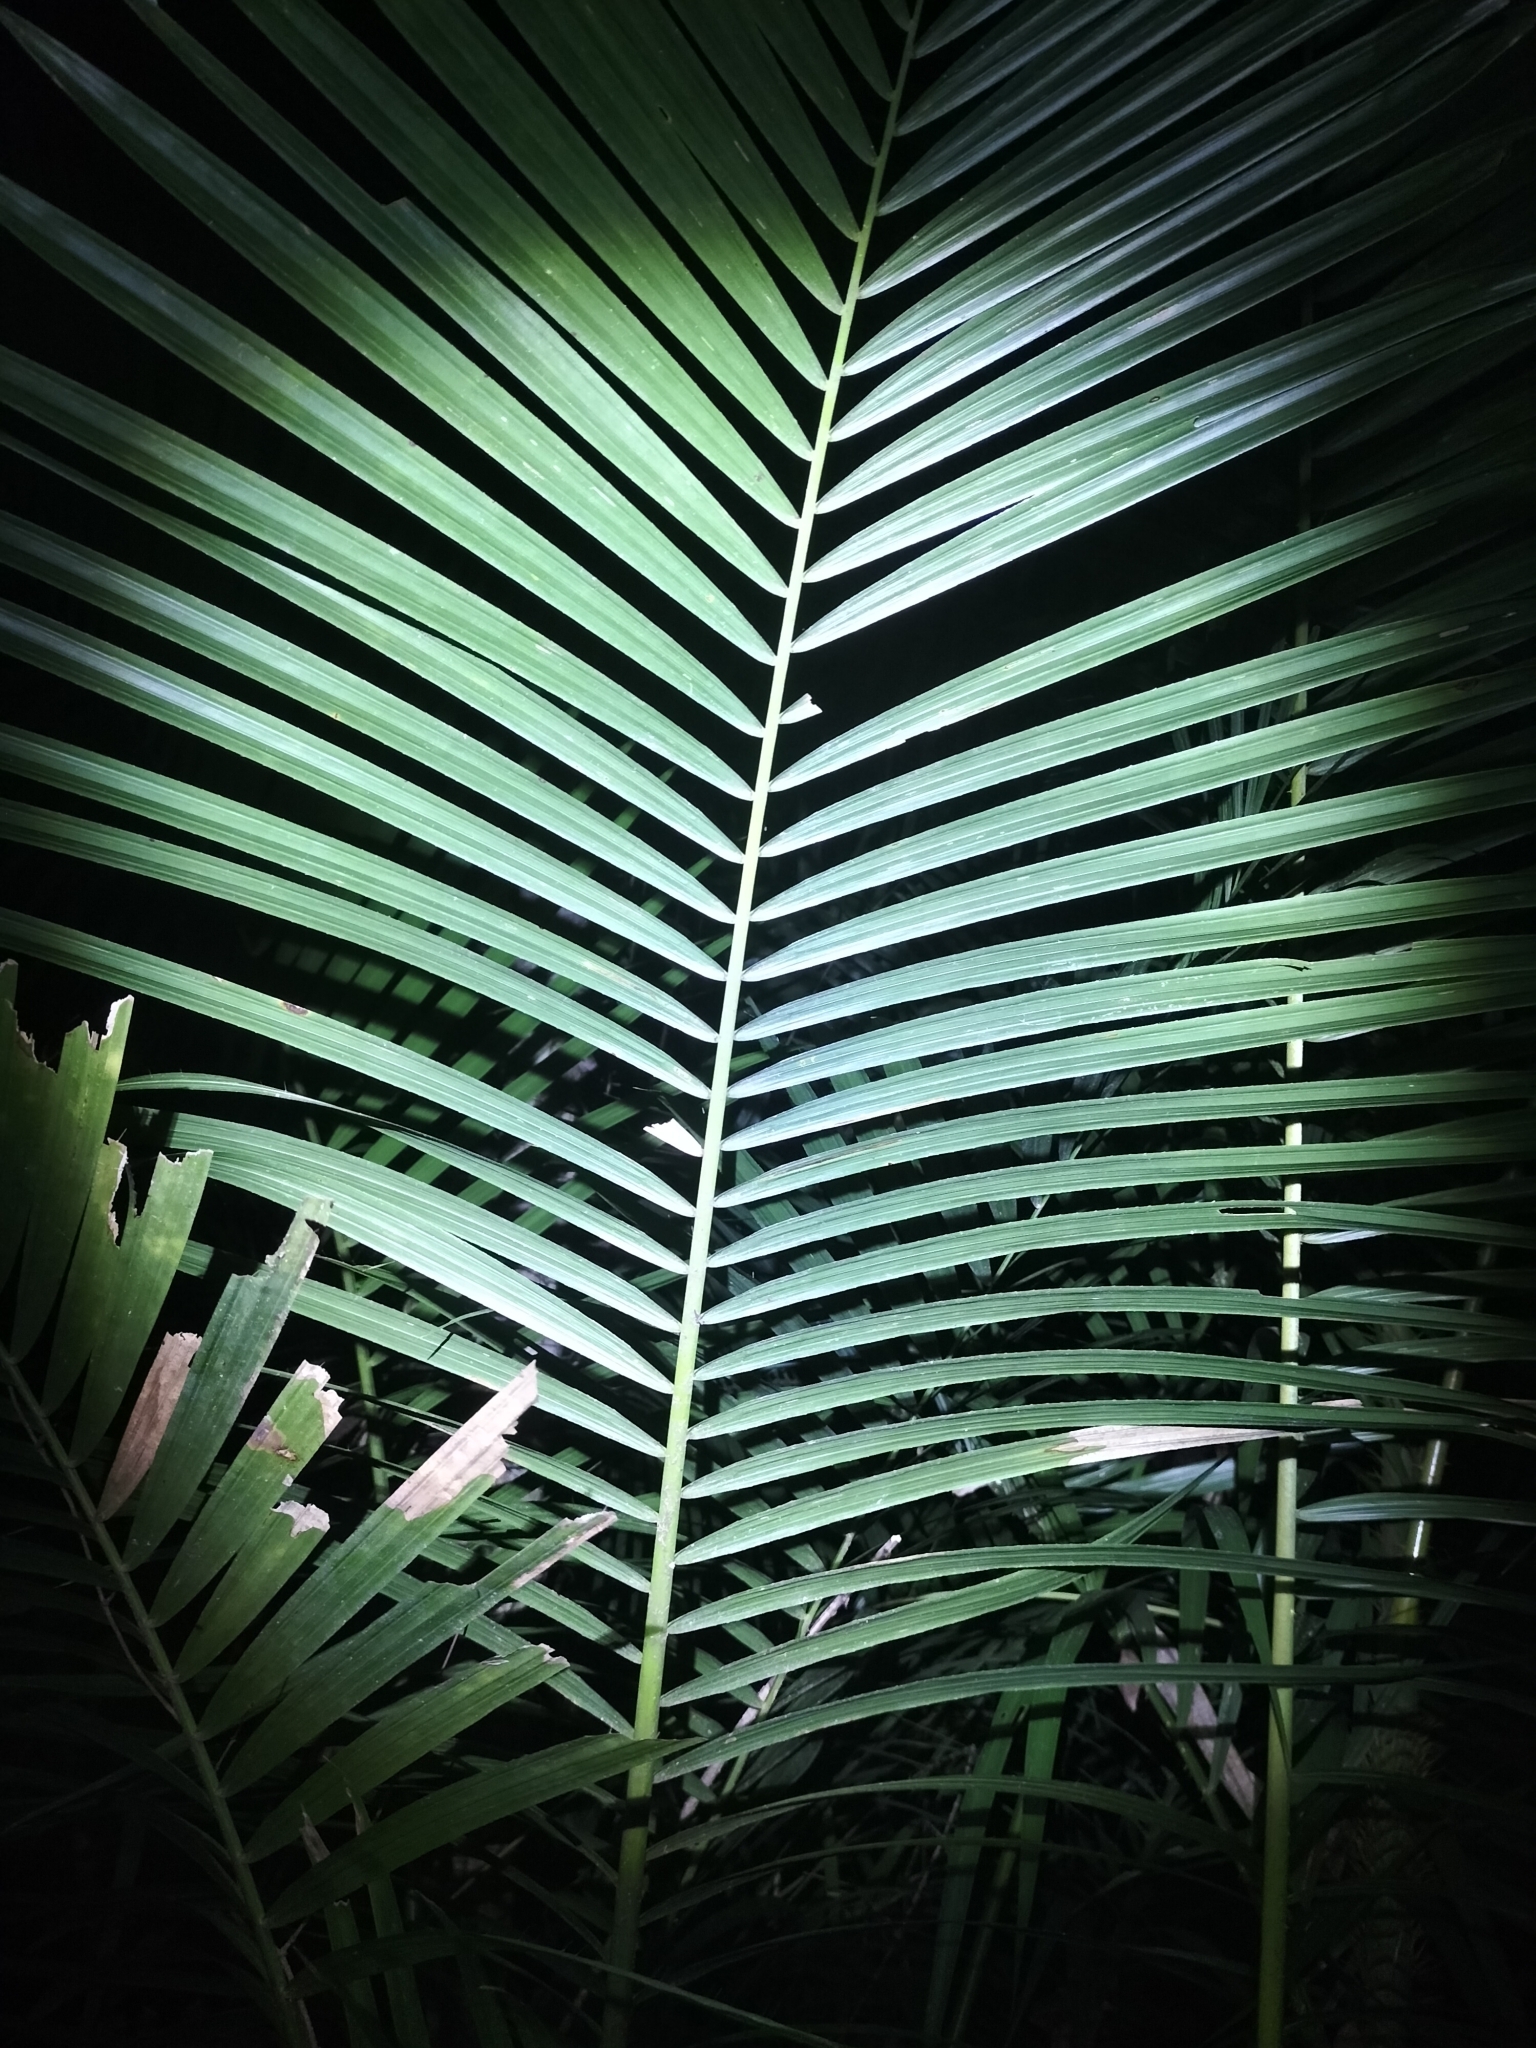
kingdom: Plantae
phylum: Tracheophyta
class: Liliopsida
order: Arecales
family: Arecaceae
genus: Calamus
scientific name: Calamus moti
